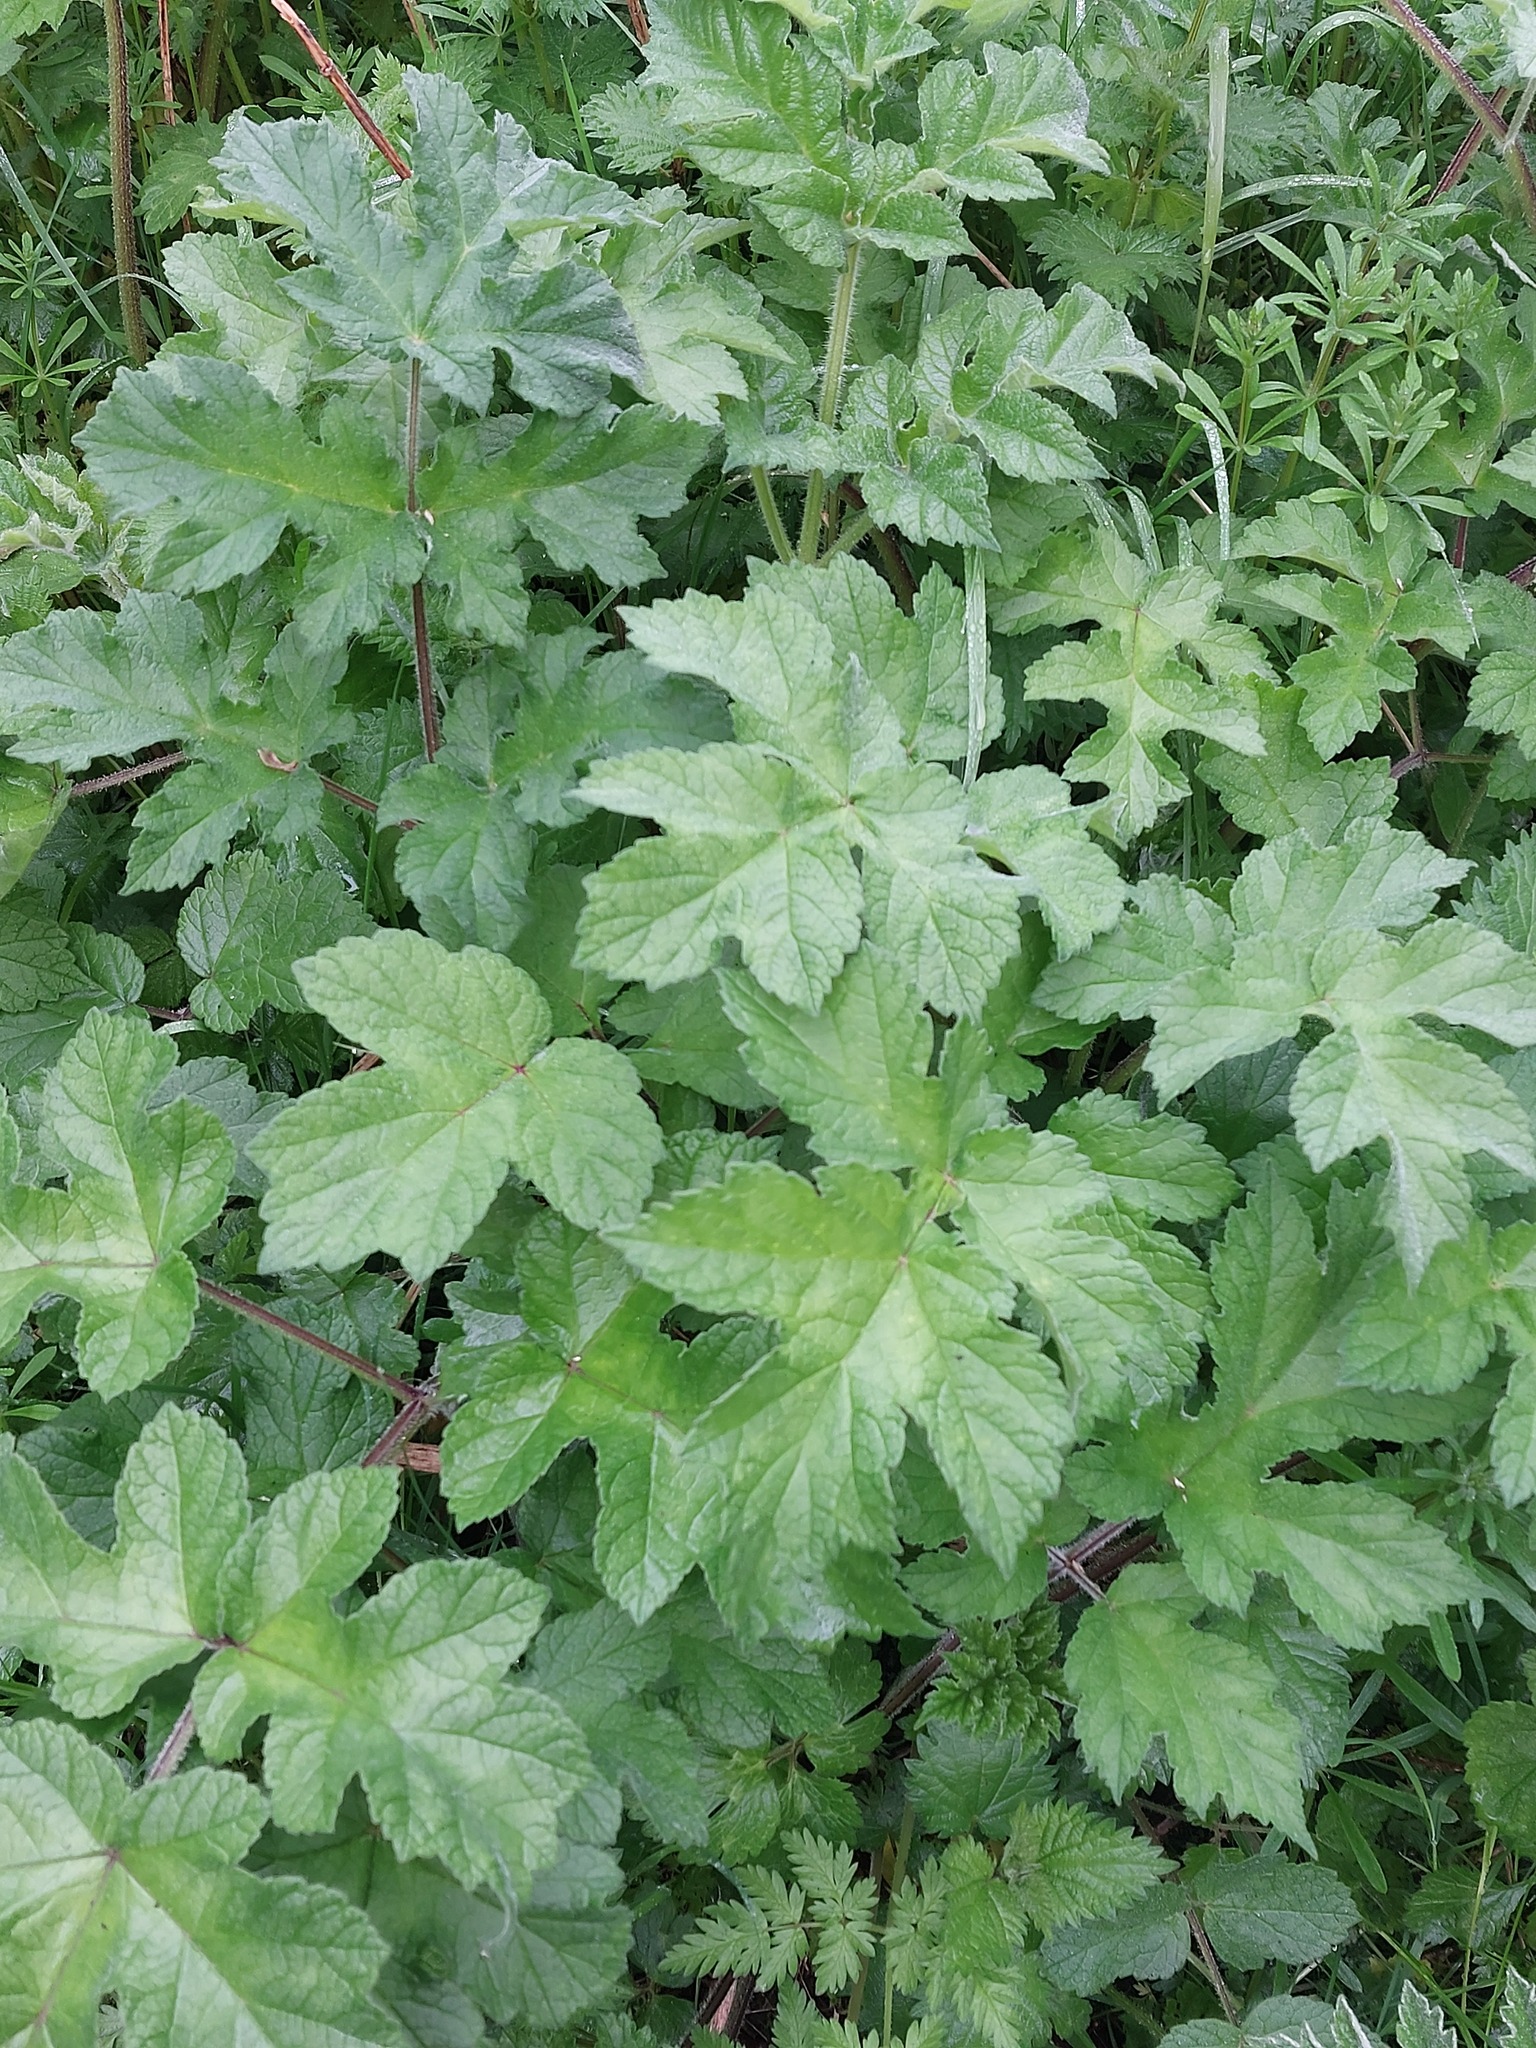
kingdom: Plantae
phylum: Tracheophyta
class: Magnoliopsida
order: Apiales
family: Apiaceae
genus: Heracleum
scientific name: Heracleum sphondylium
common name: Hogweed
